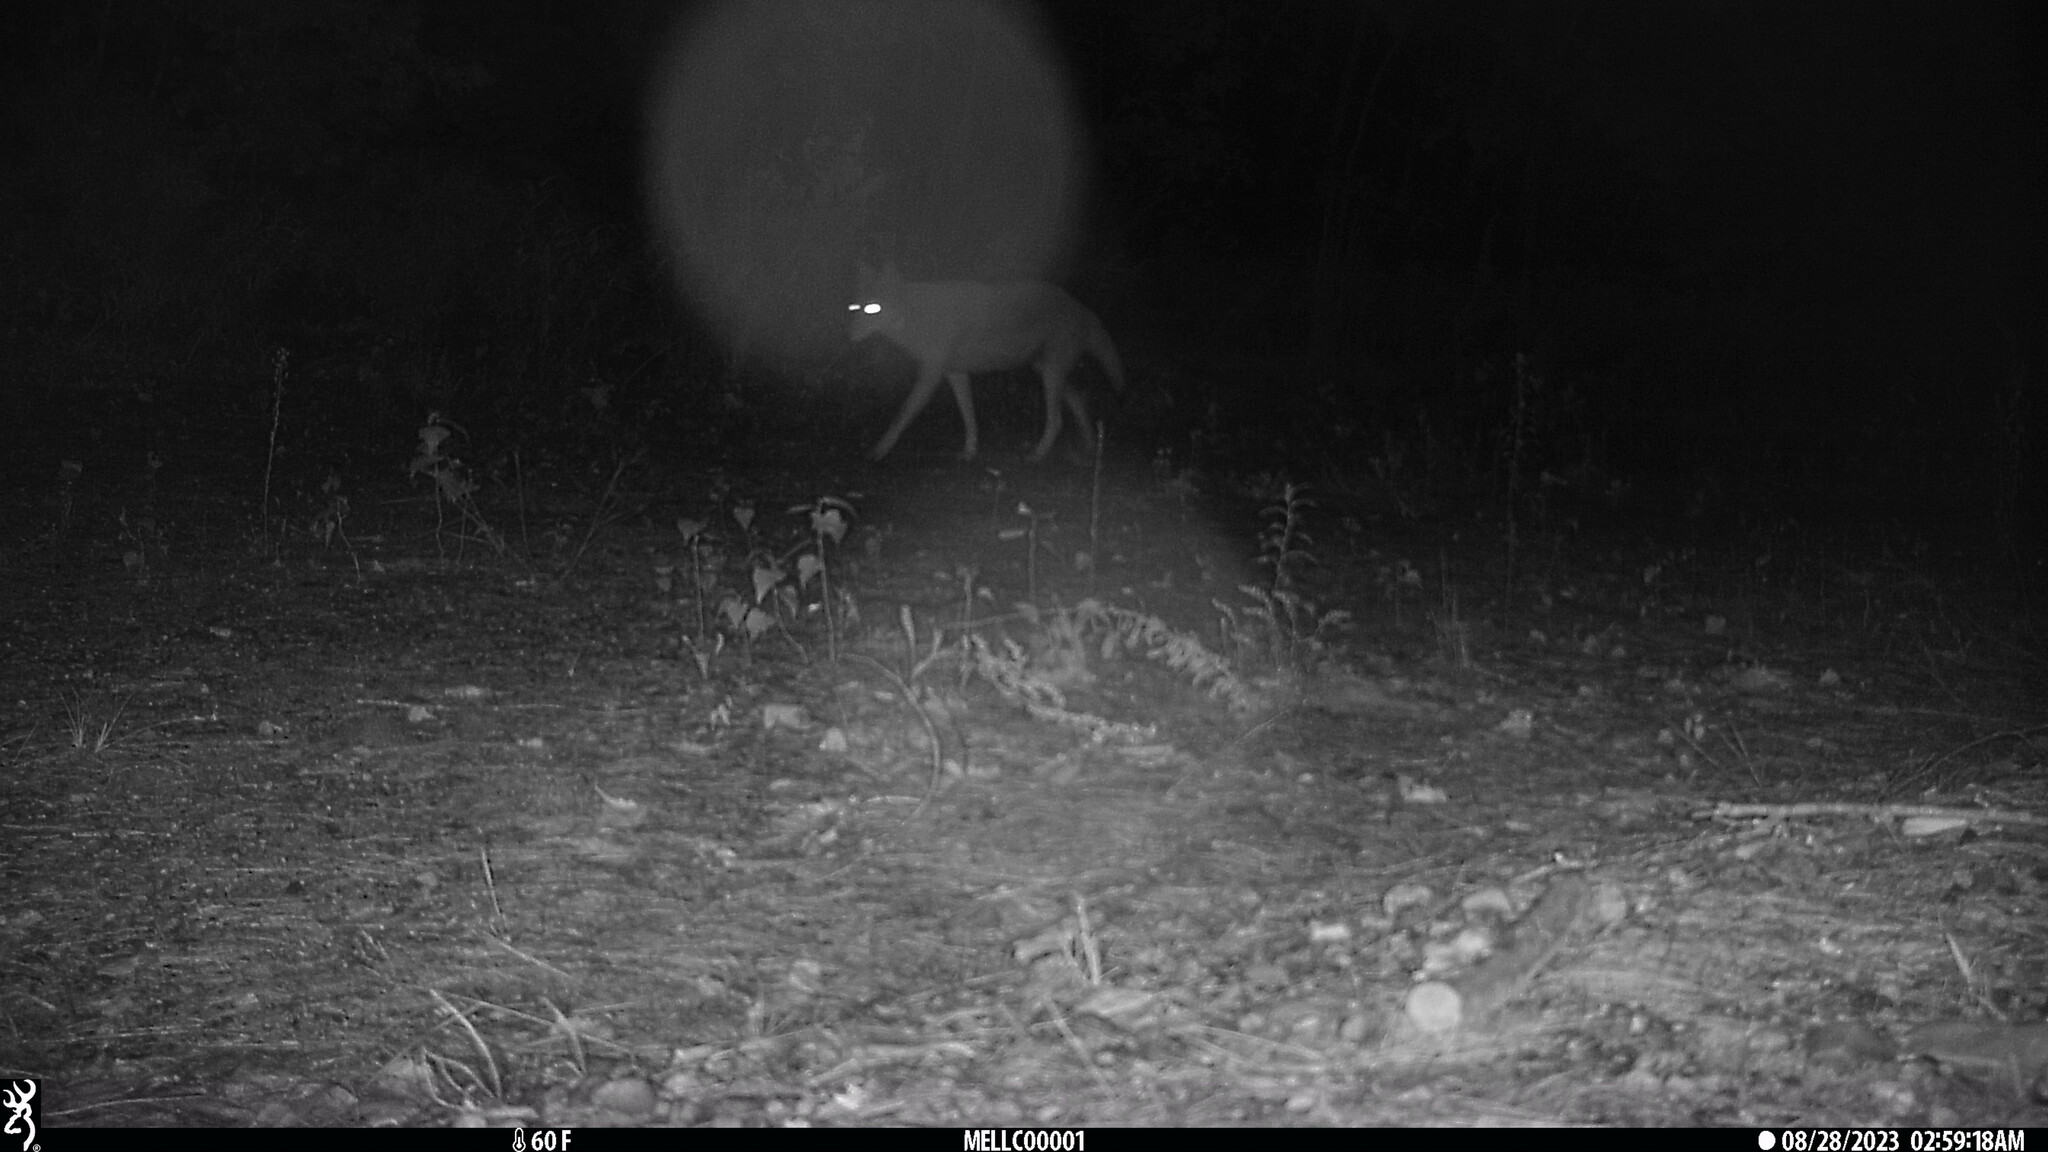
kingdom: Animalia
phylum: Chordata
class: Mammalia
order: Carnivora
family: Canidae
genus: Canis
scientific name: Canis latrans
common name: Coyote
